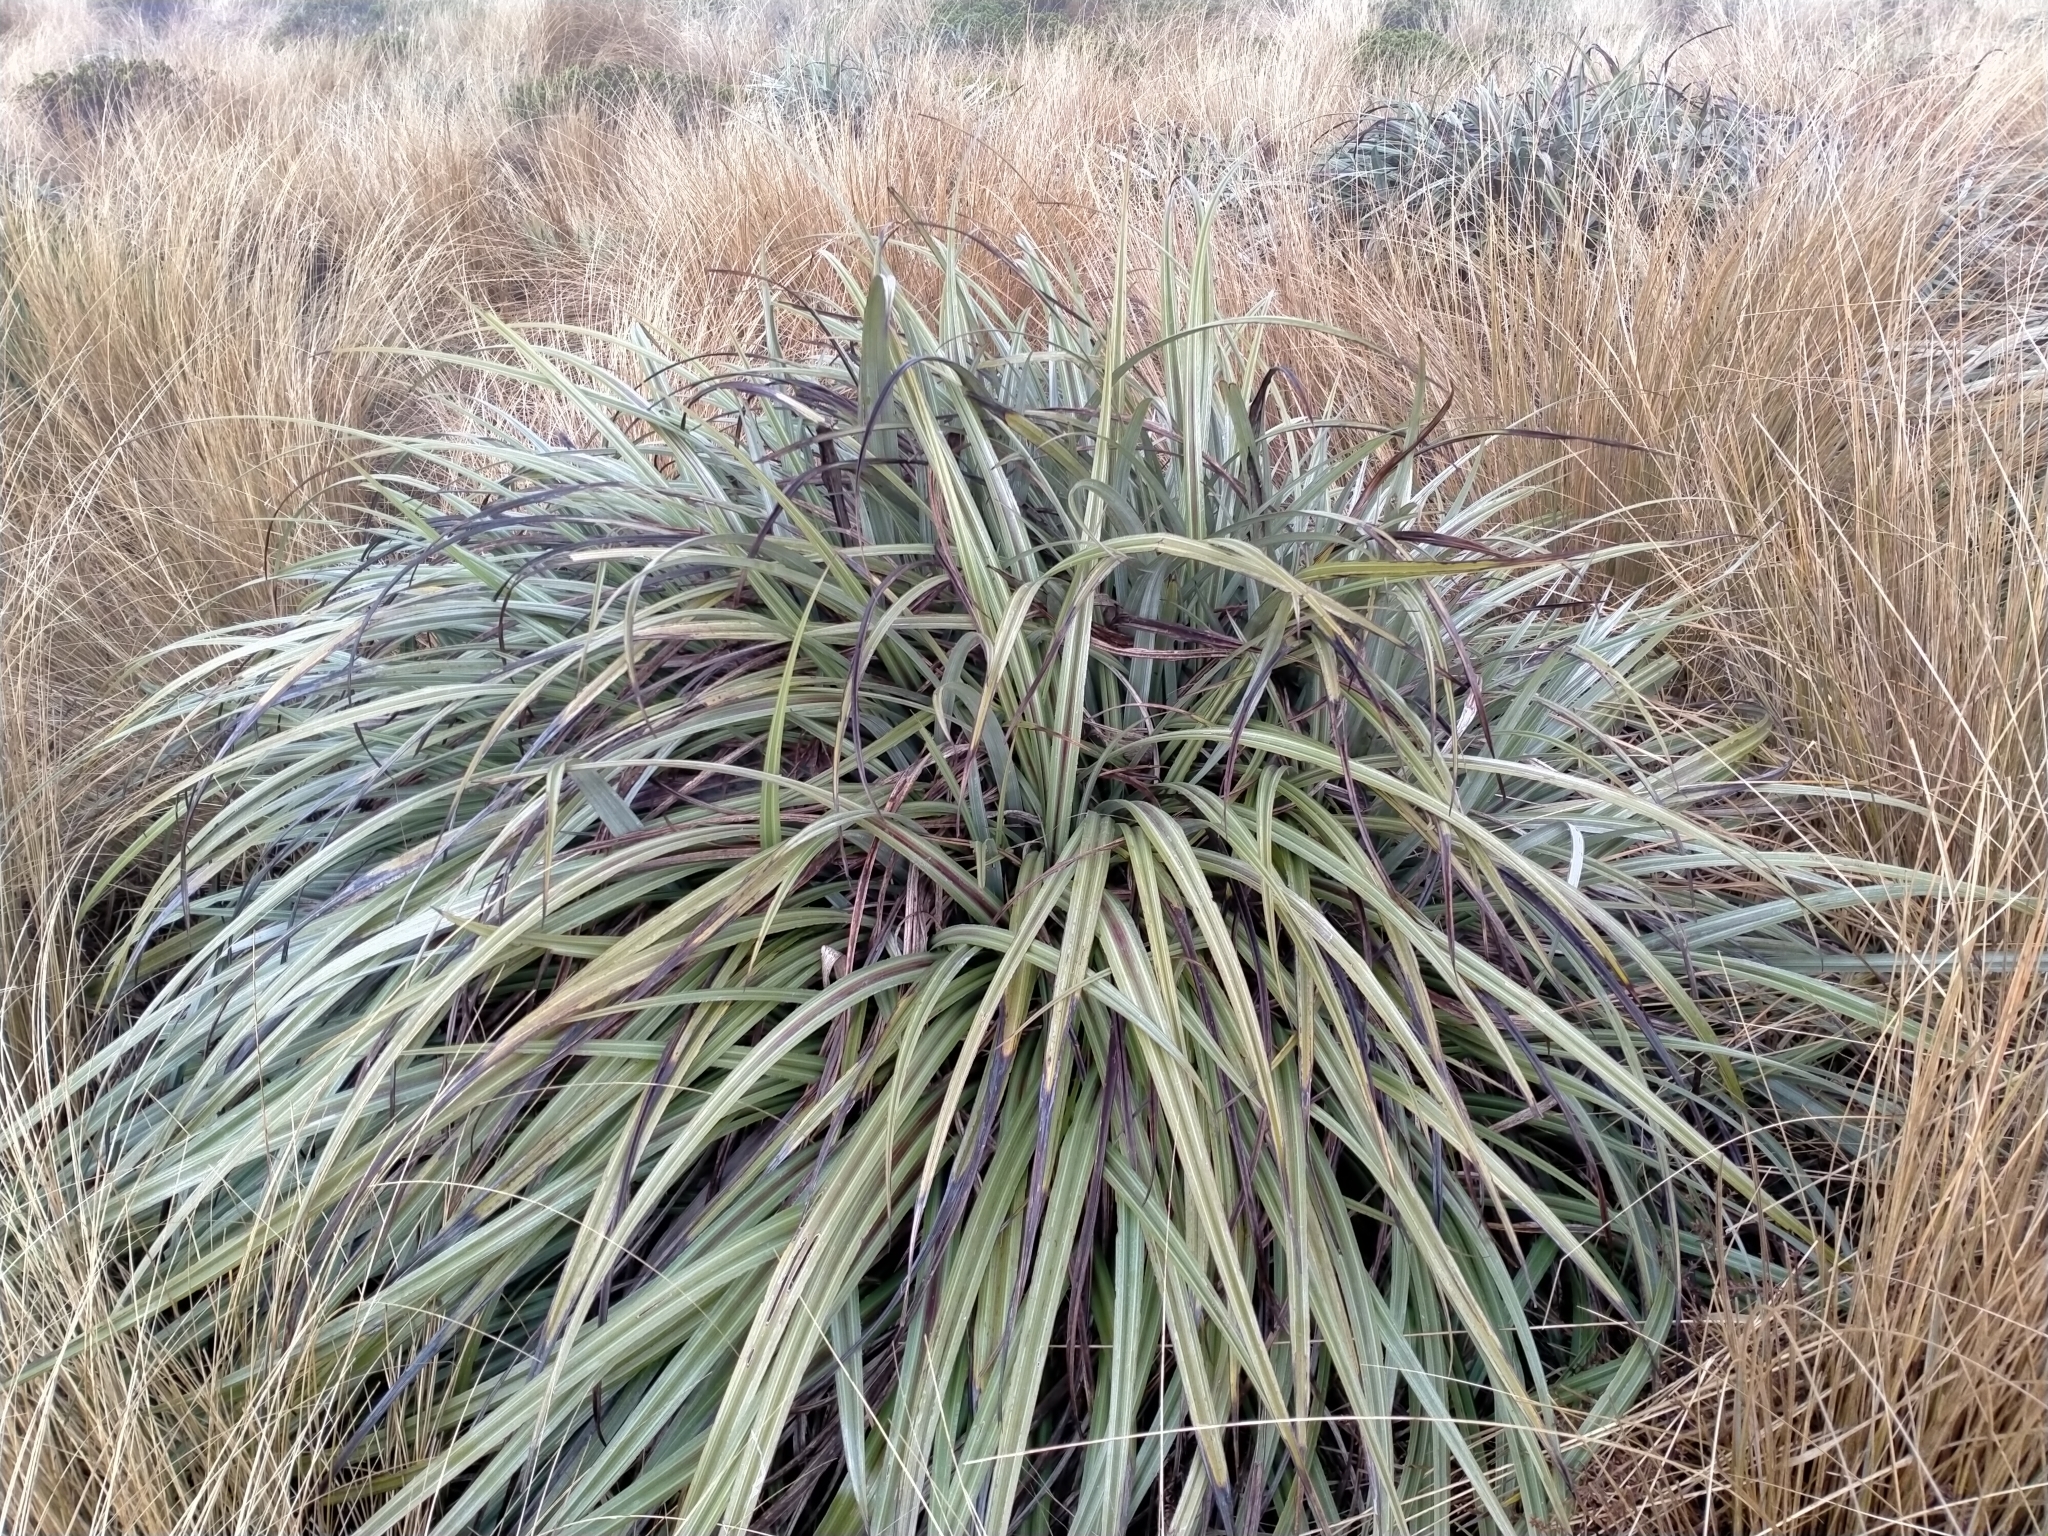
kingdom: Plantae
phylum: Tracheophyta
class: Liliopsida
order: Asparagales
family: Asteliaceae
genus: Astelia
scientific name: Astelia nervosa
